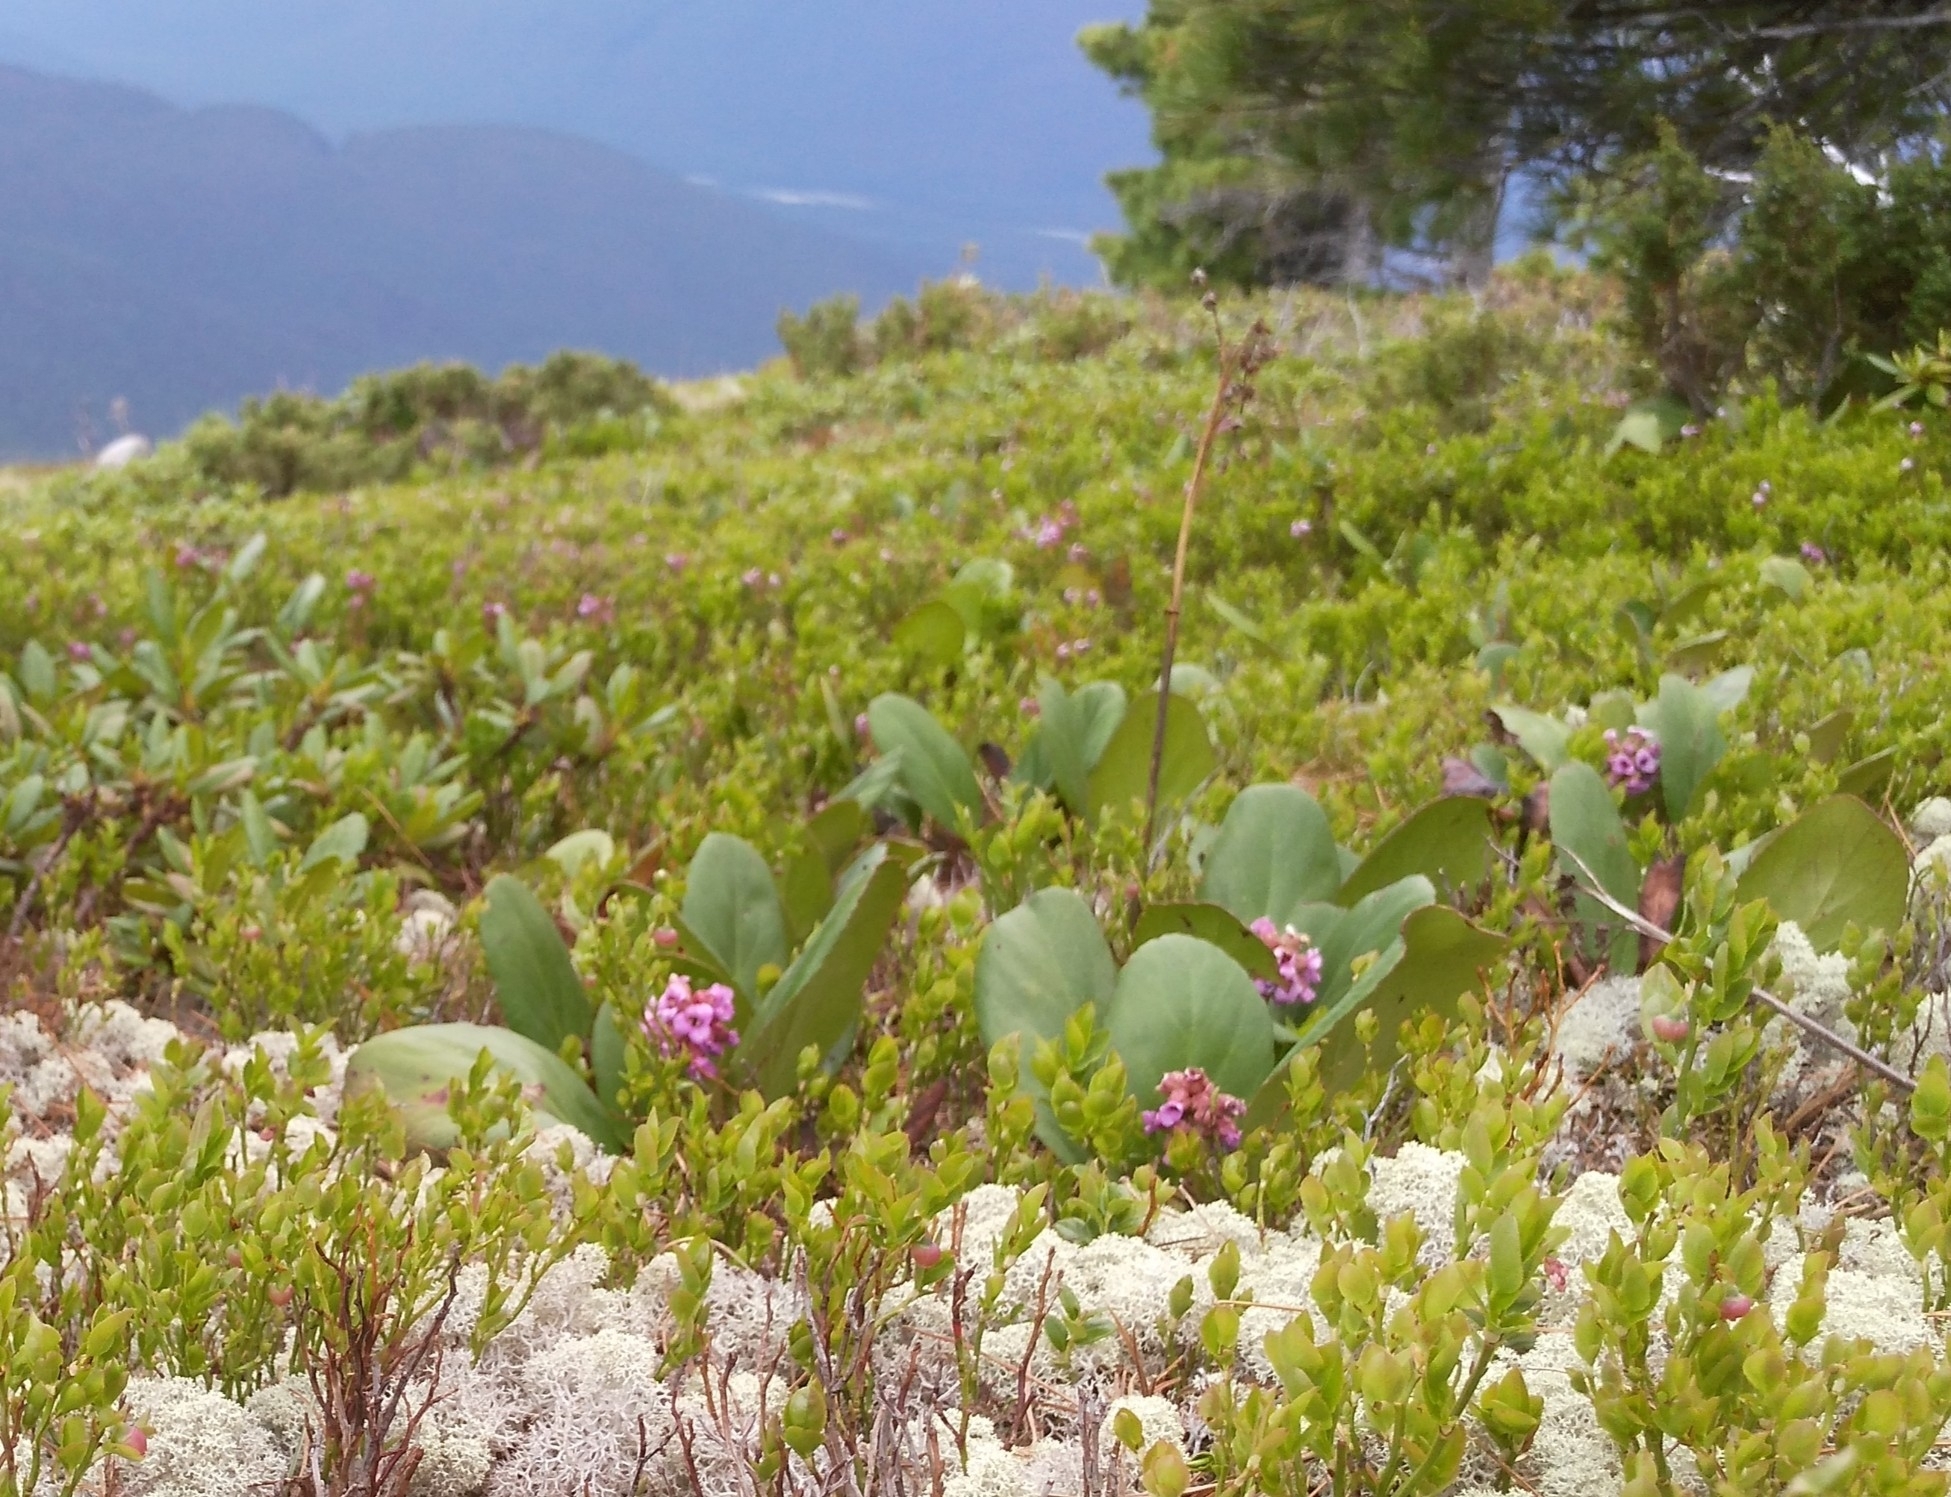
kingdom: Plantae
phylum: Tracheophyta
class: Magnoliopsida
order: Saxifragales
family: Saxifragaceae
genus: Bergenia
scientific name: Bergenia crassifolia
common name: Elephant-ears
